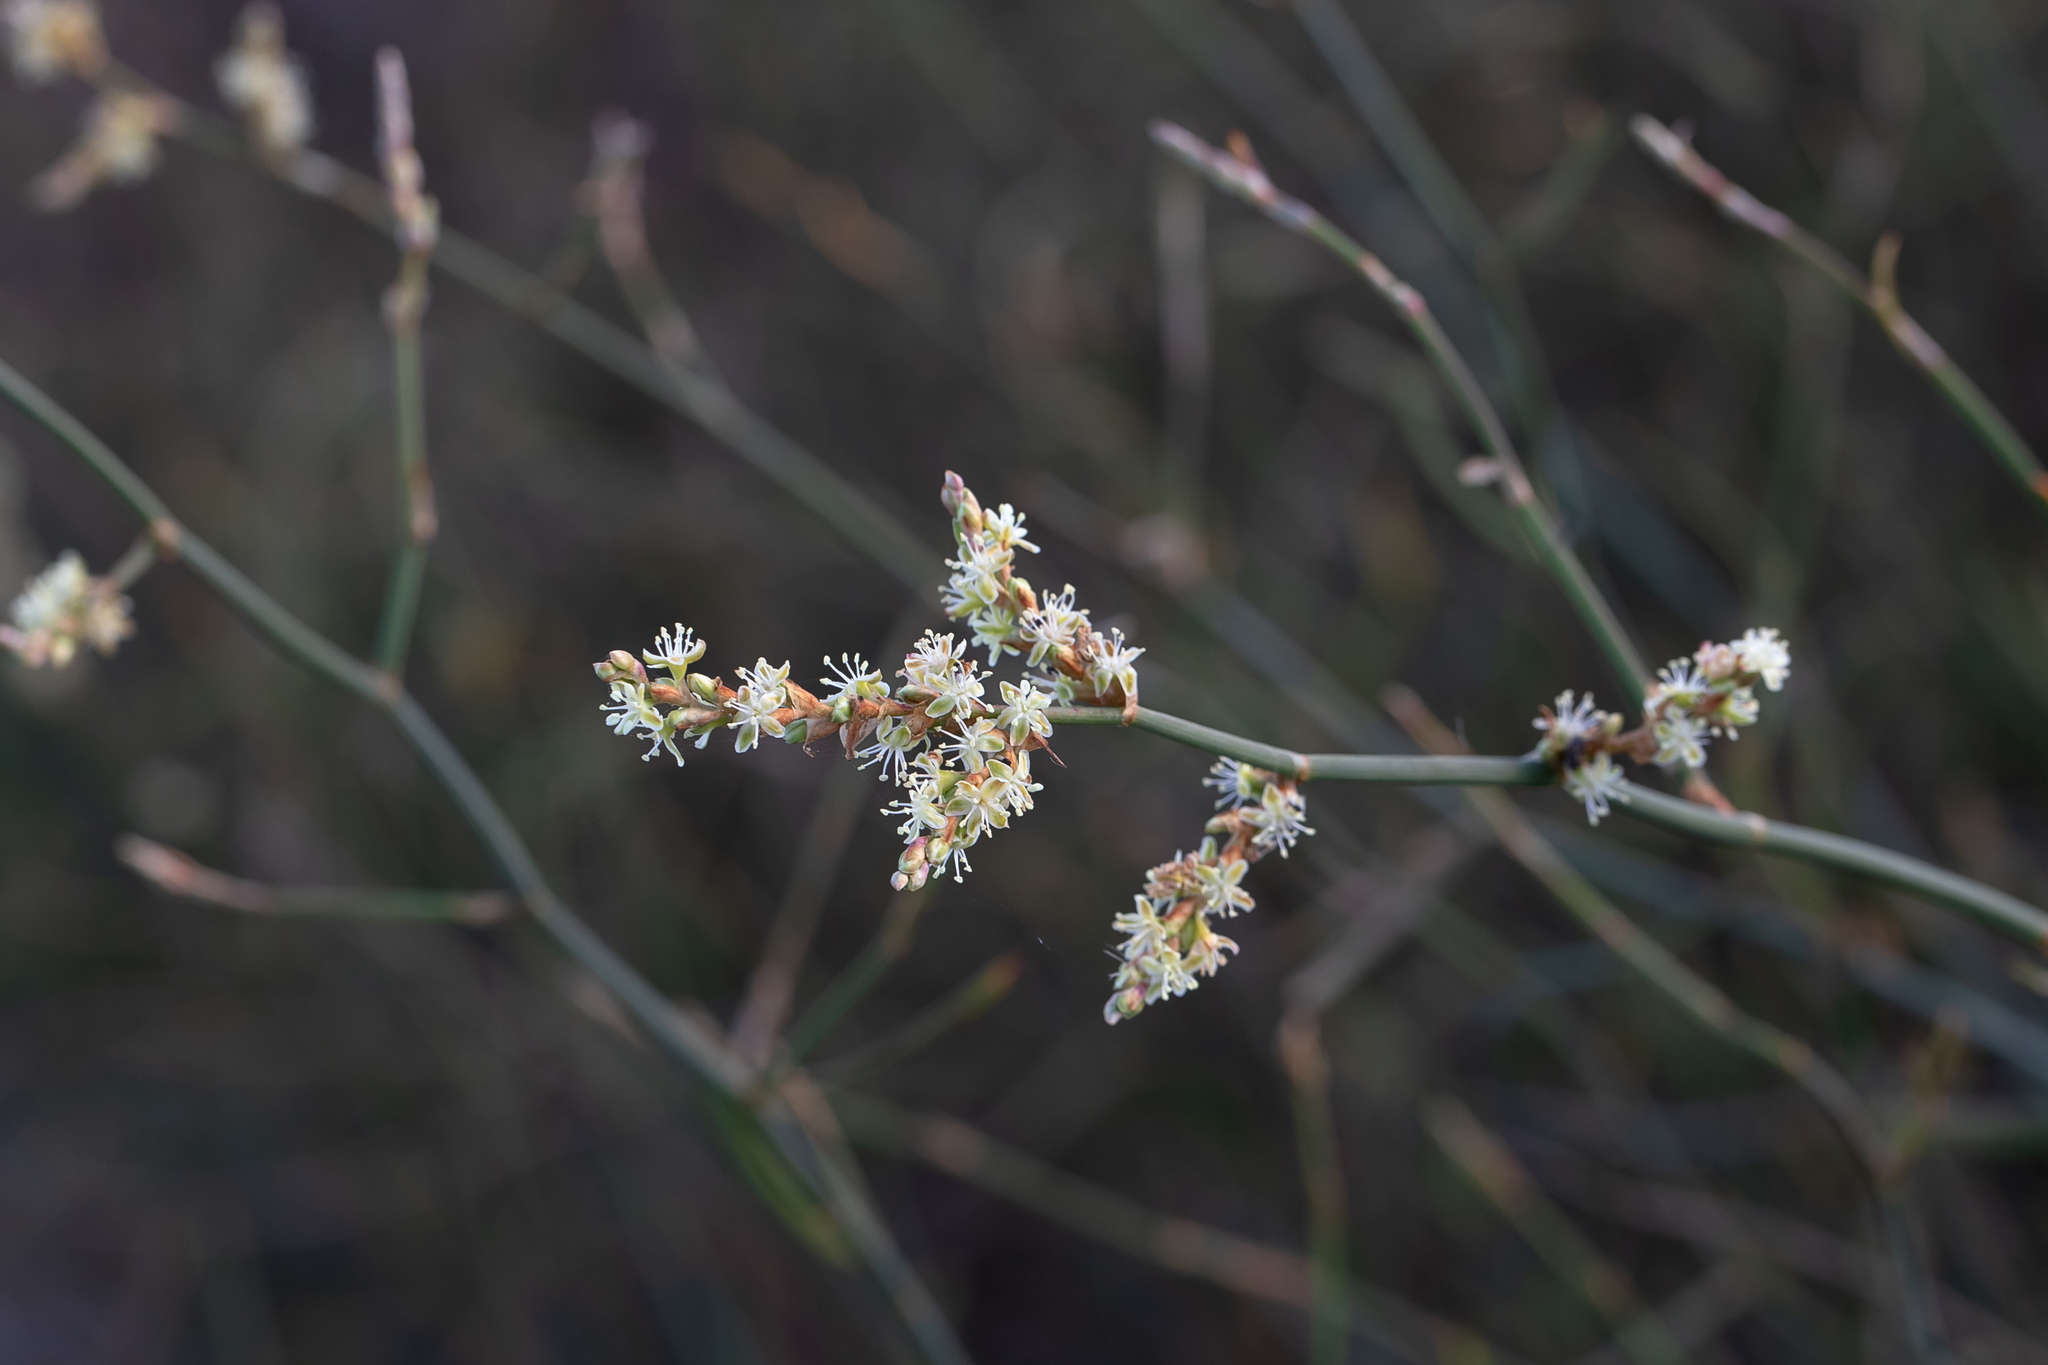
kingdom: Plantae
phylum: Tracheophyta
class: Magnoliopsida
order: Caryophyllales
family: Polygonaceae
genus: Duma
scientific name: Duma florulenta
